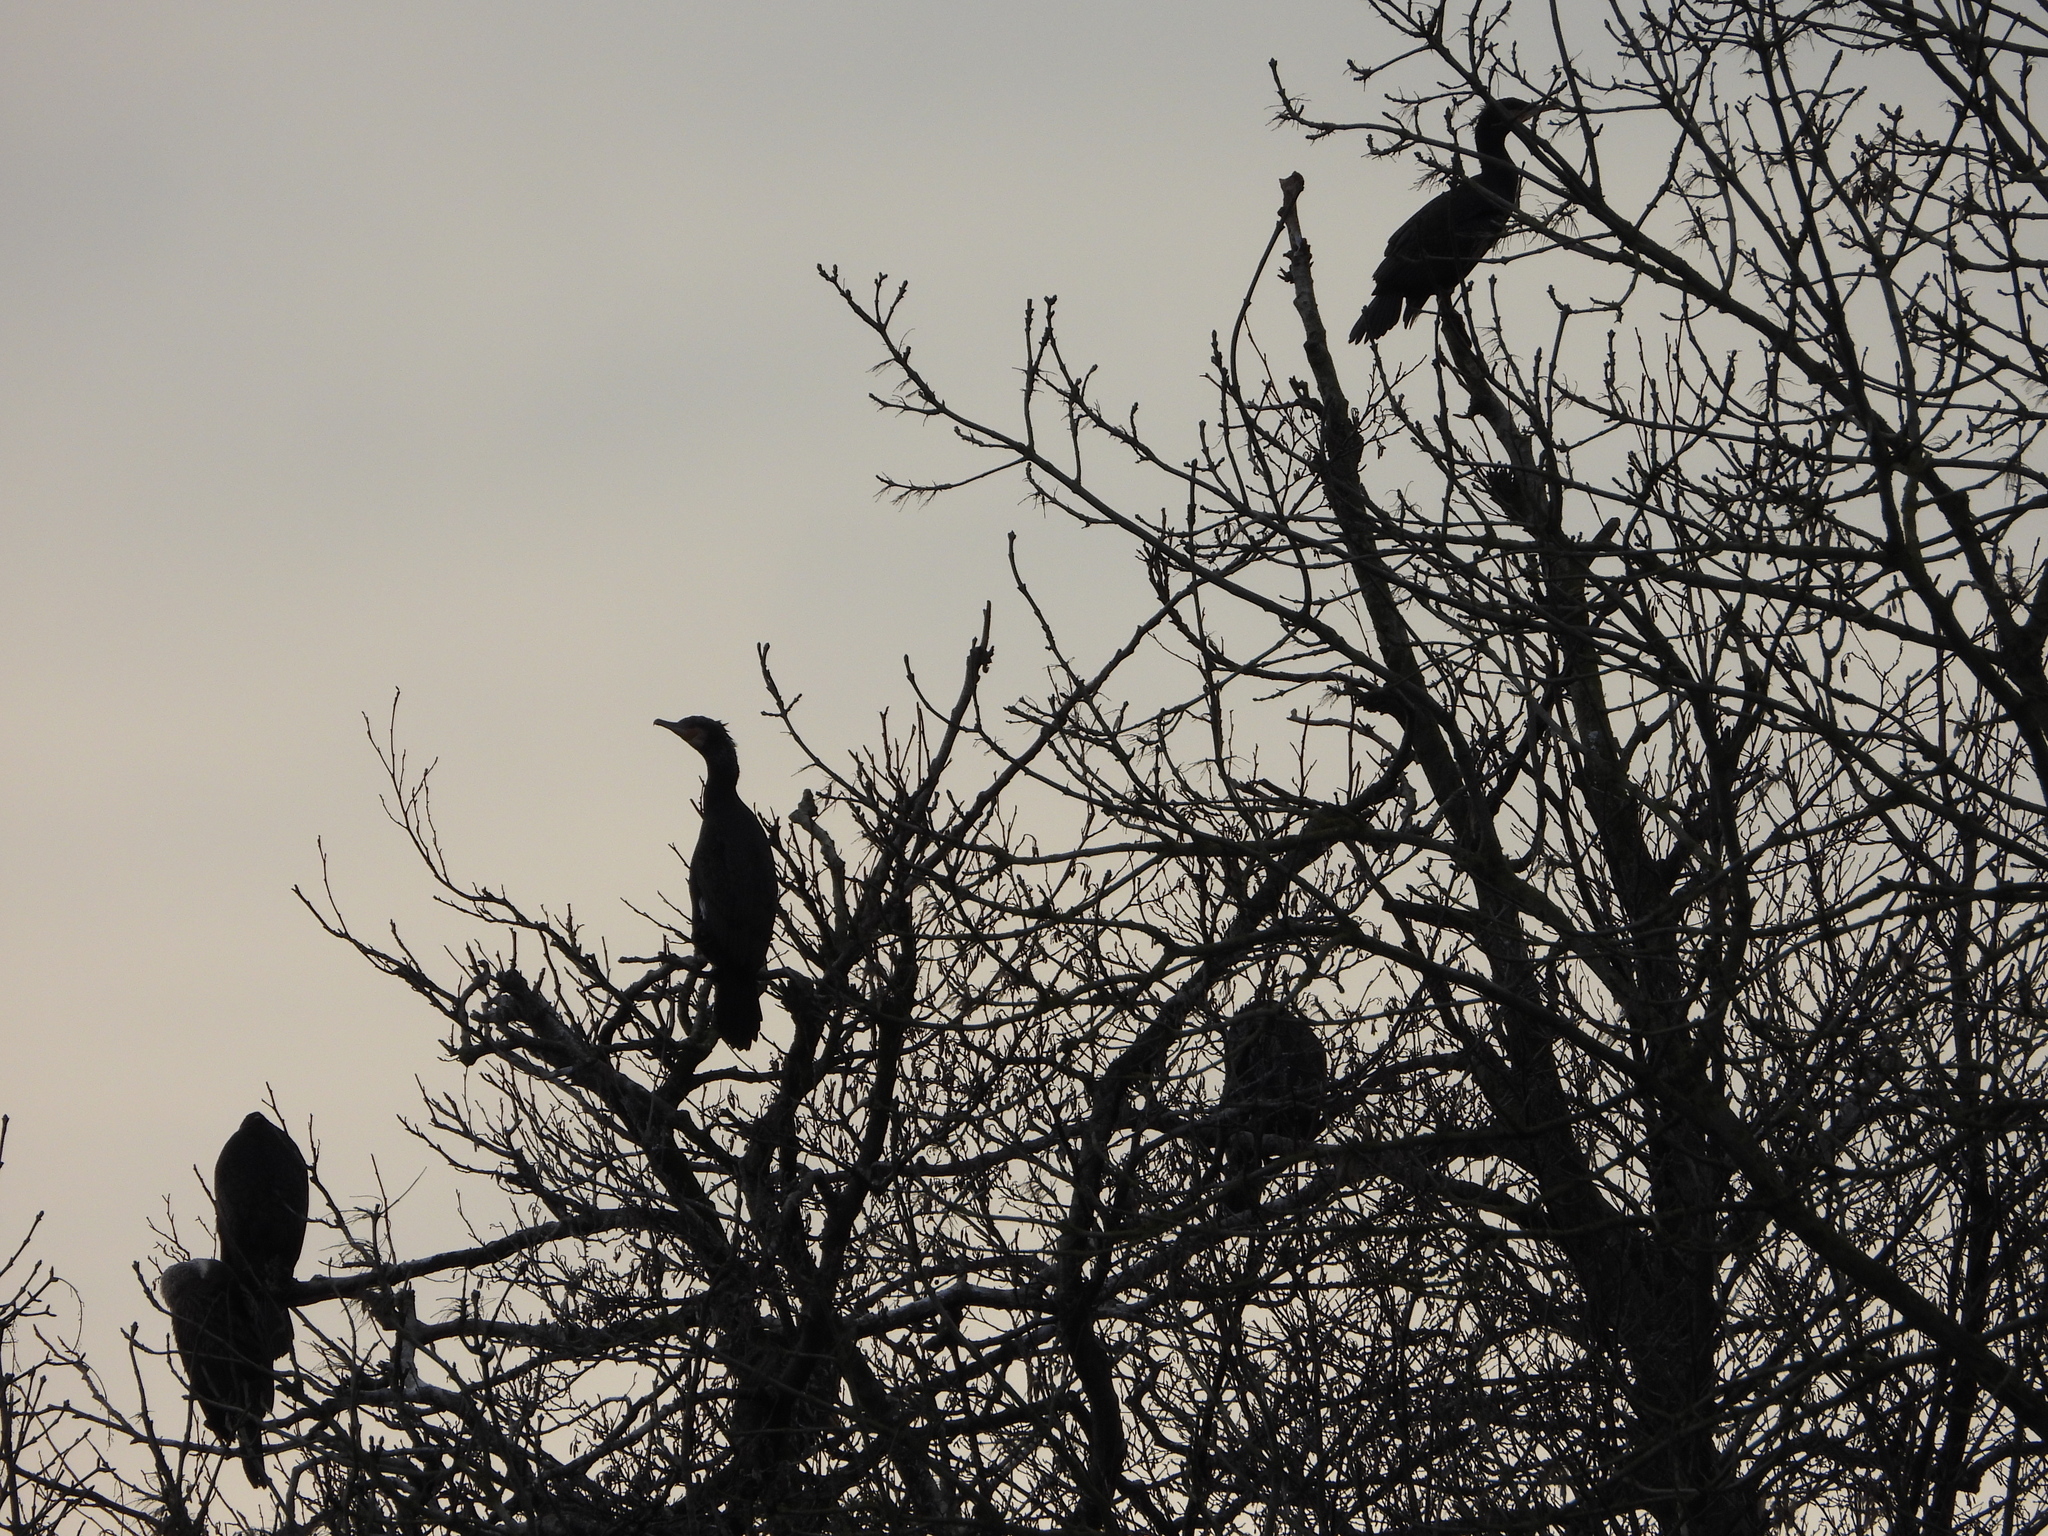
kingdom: Animalia
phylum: Chordata
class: Aves
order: Suliformes
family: Phalacrocoracidae
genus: Phalacrocorax
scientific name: Phalacrocorax carbo
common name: Great cormorant
